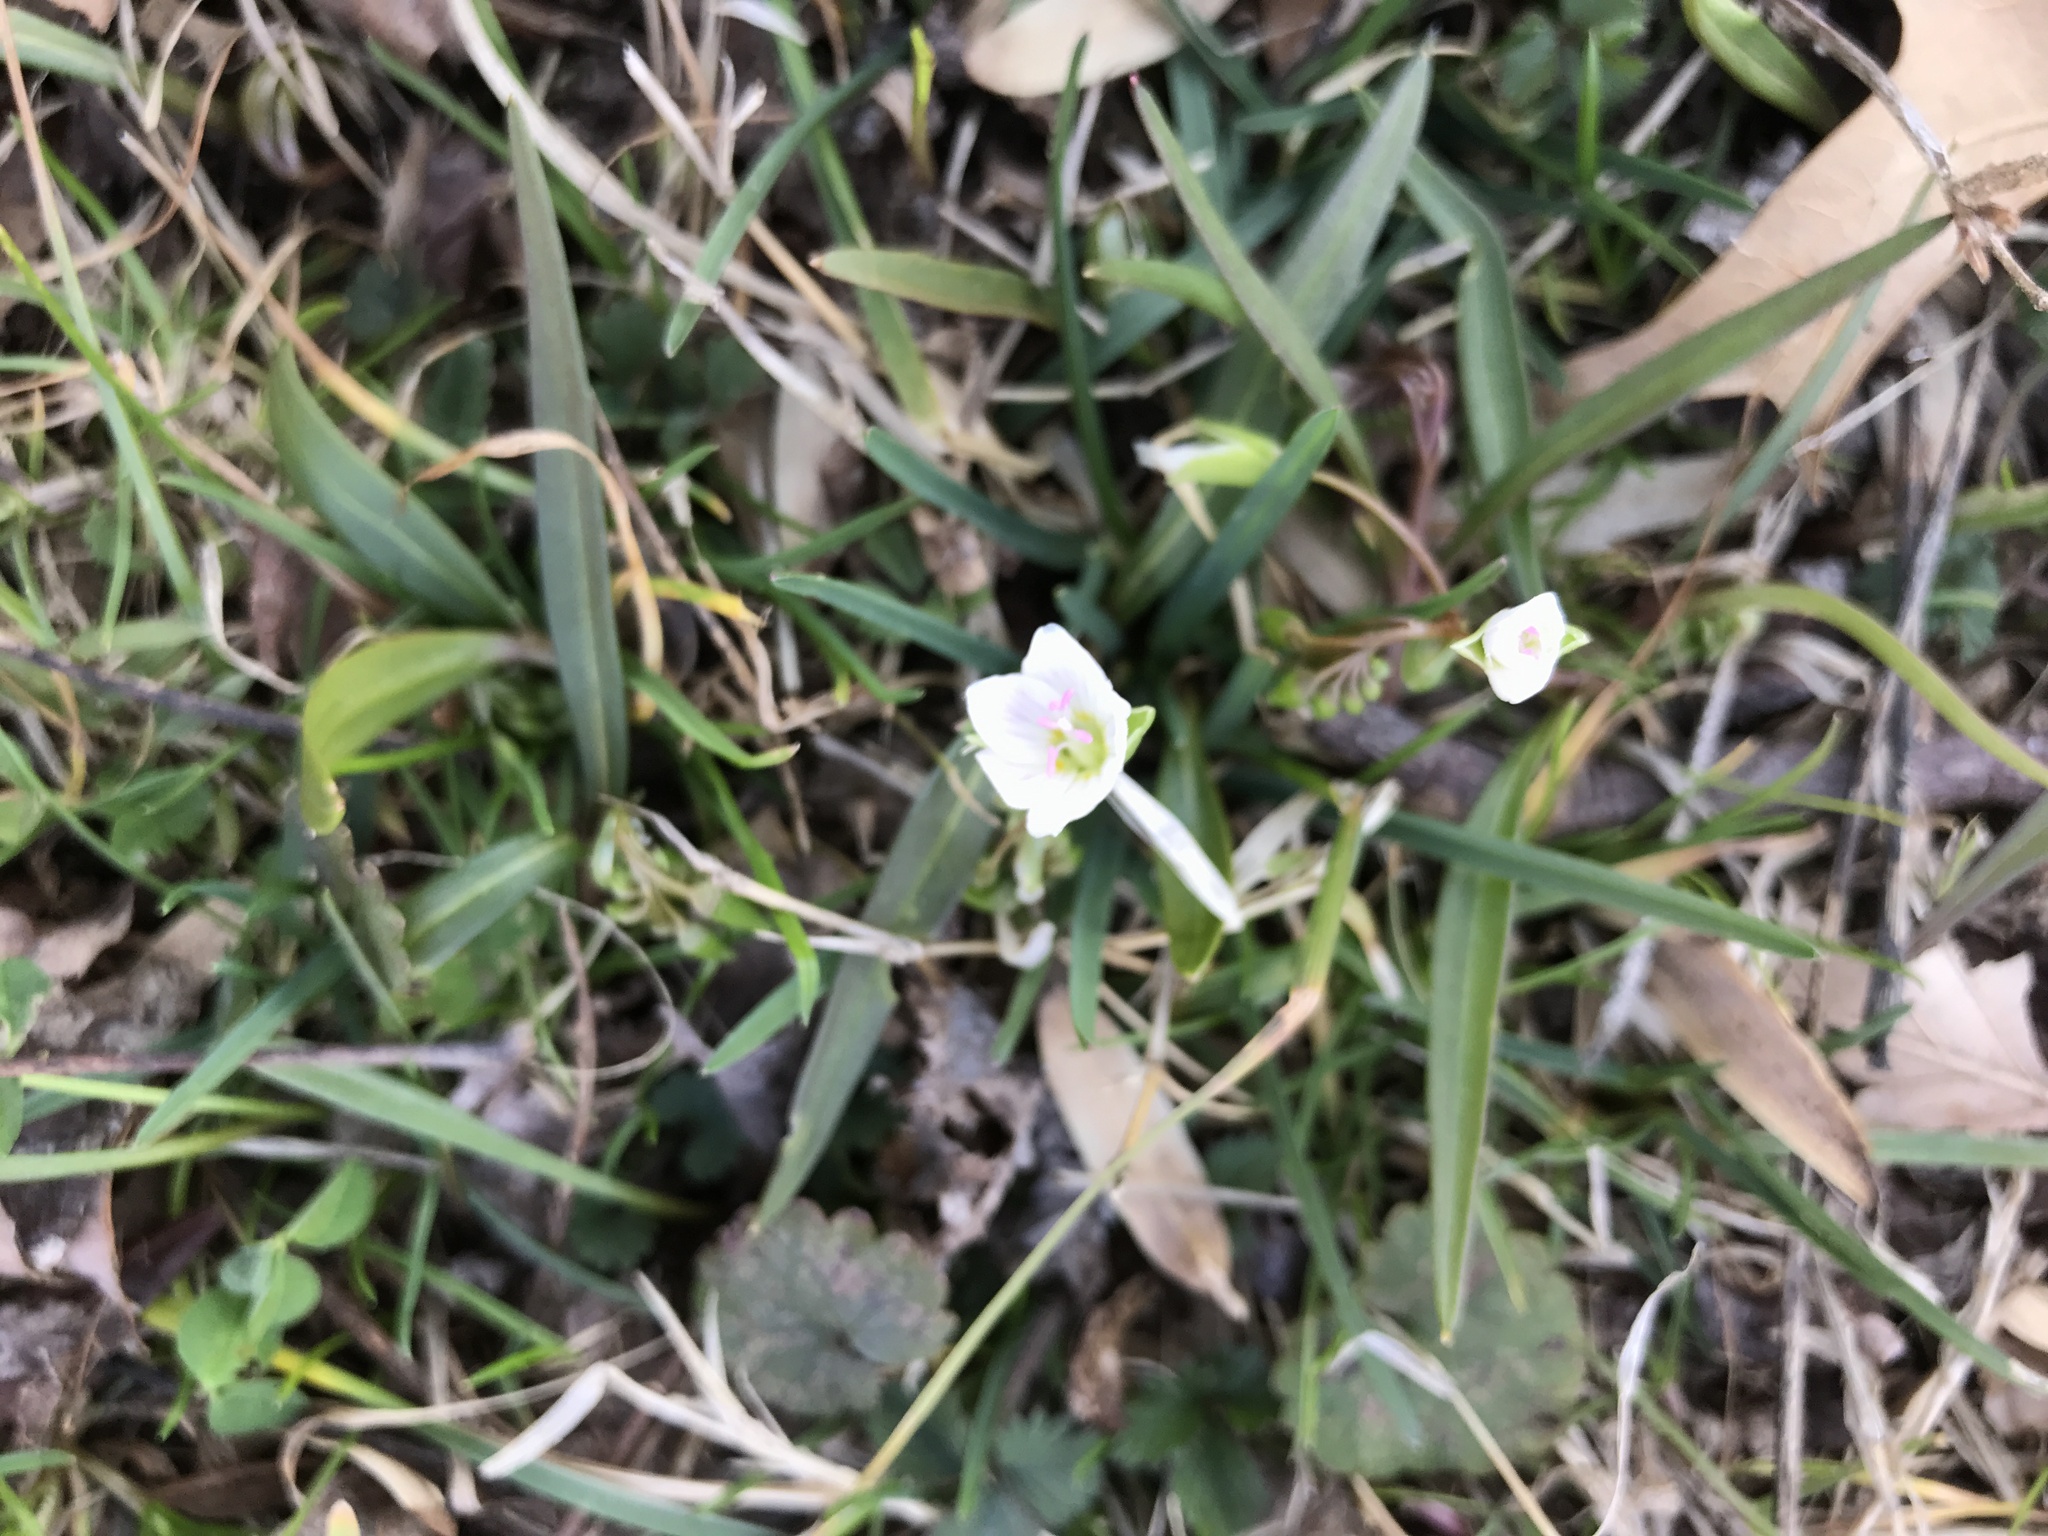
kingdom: Plantae
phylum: Tracheophyta
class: Magnoliopsida
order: Caryophyllales
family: Montiaceae
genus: Claytonia
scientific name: Claytonia virginica
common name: Virginia springbeauty
